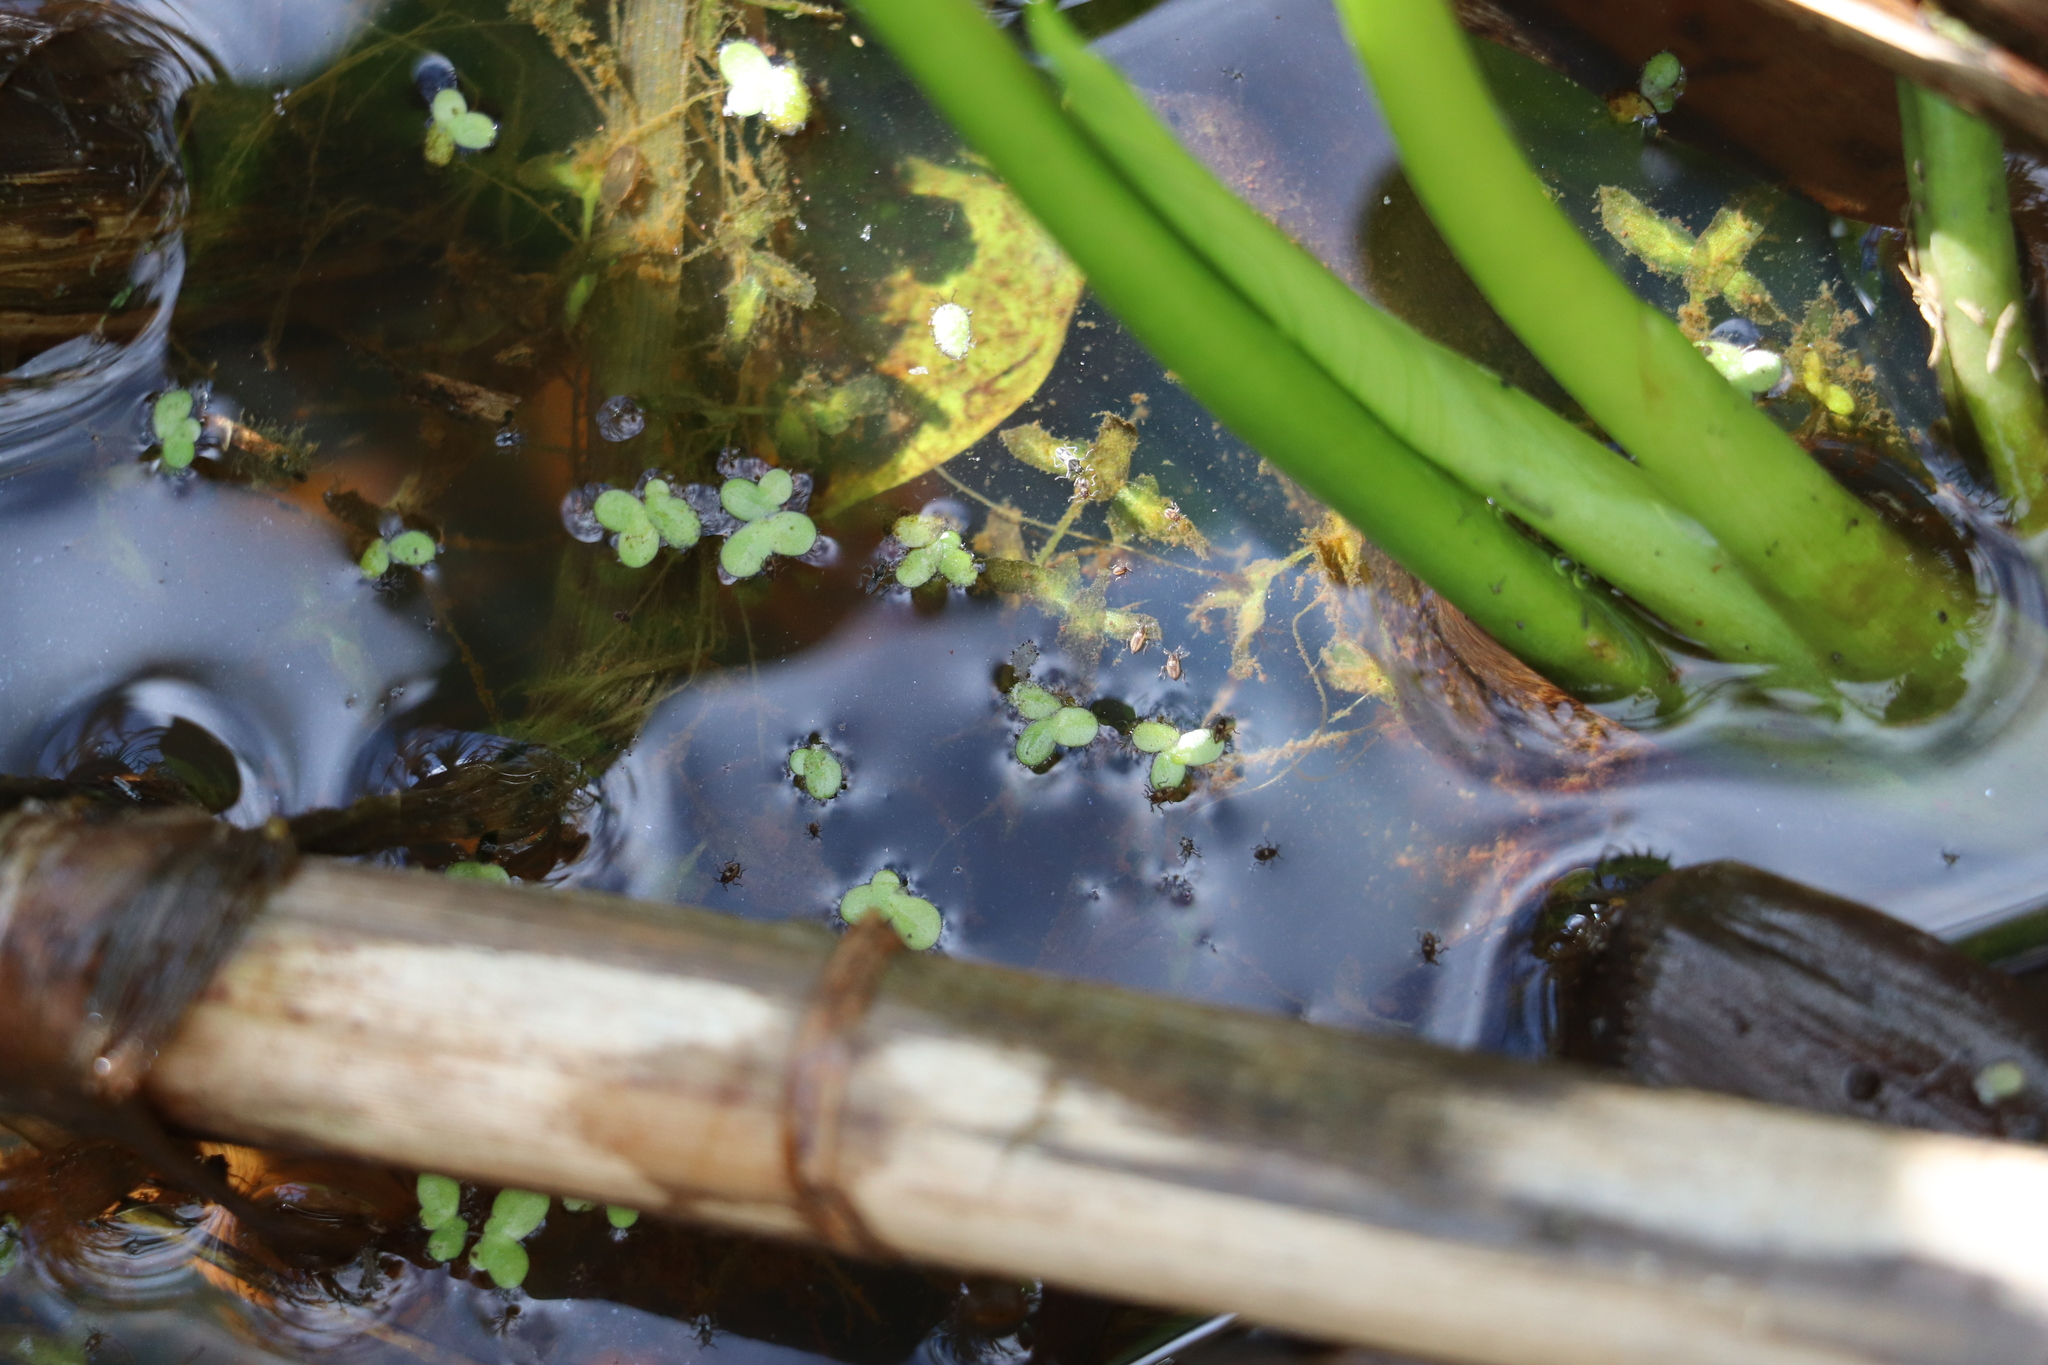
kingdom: Plantae
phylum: Tracheophyta
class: Liliopsida
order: Alismatales
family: Araceae
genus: Lemna
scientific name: Lemna minor
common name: Common duckweed
